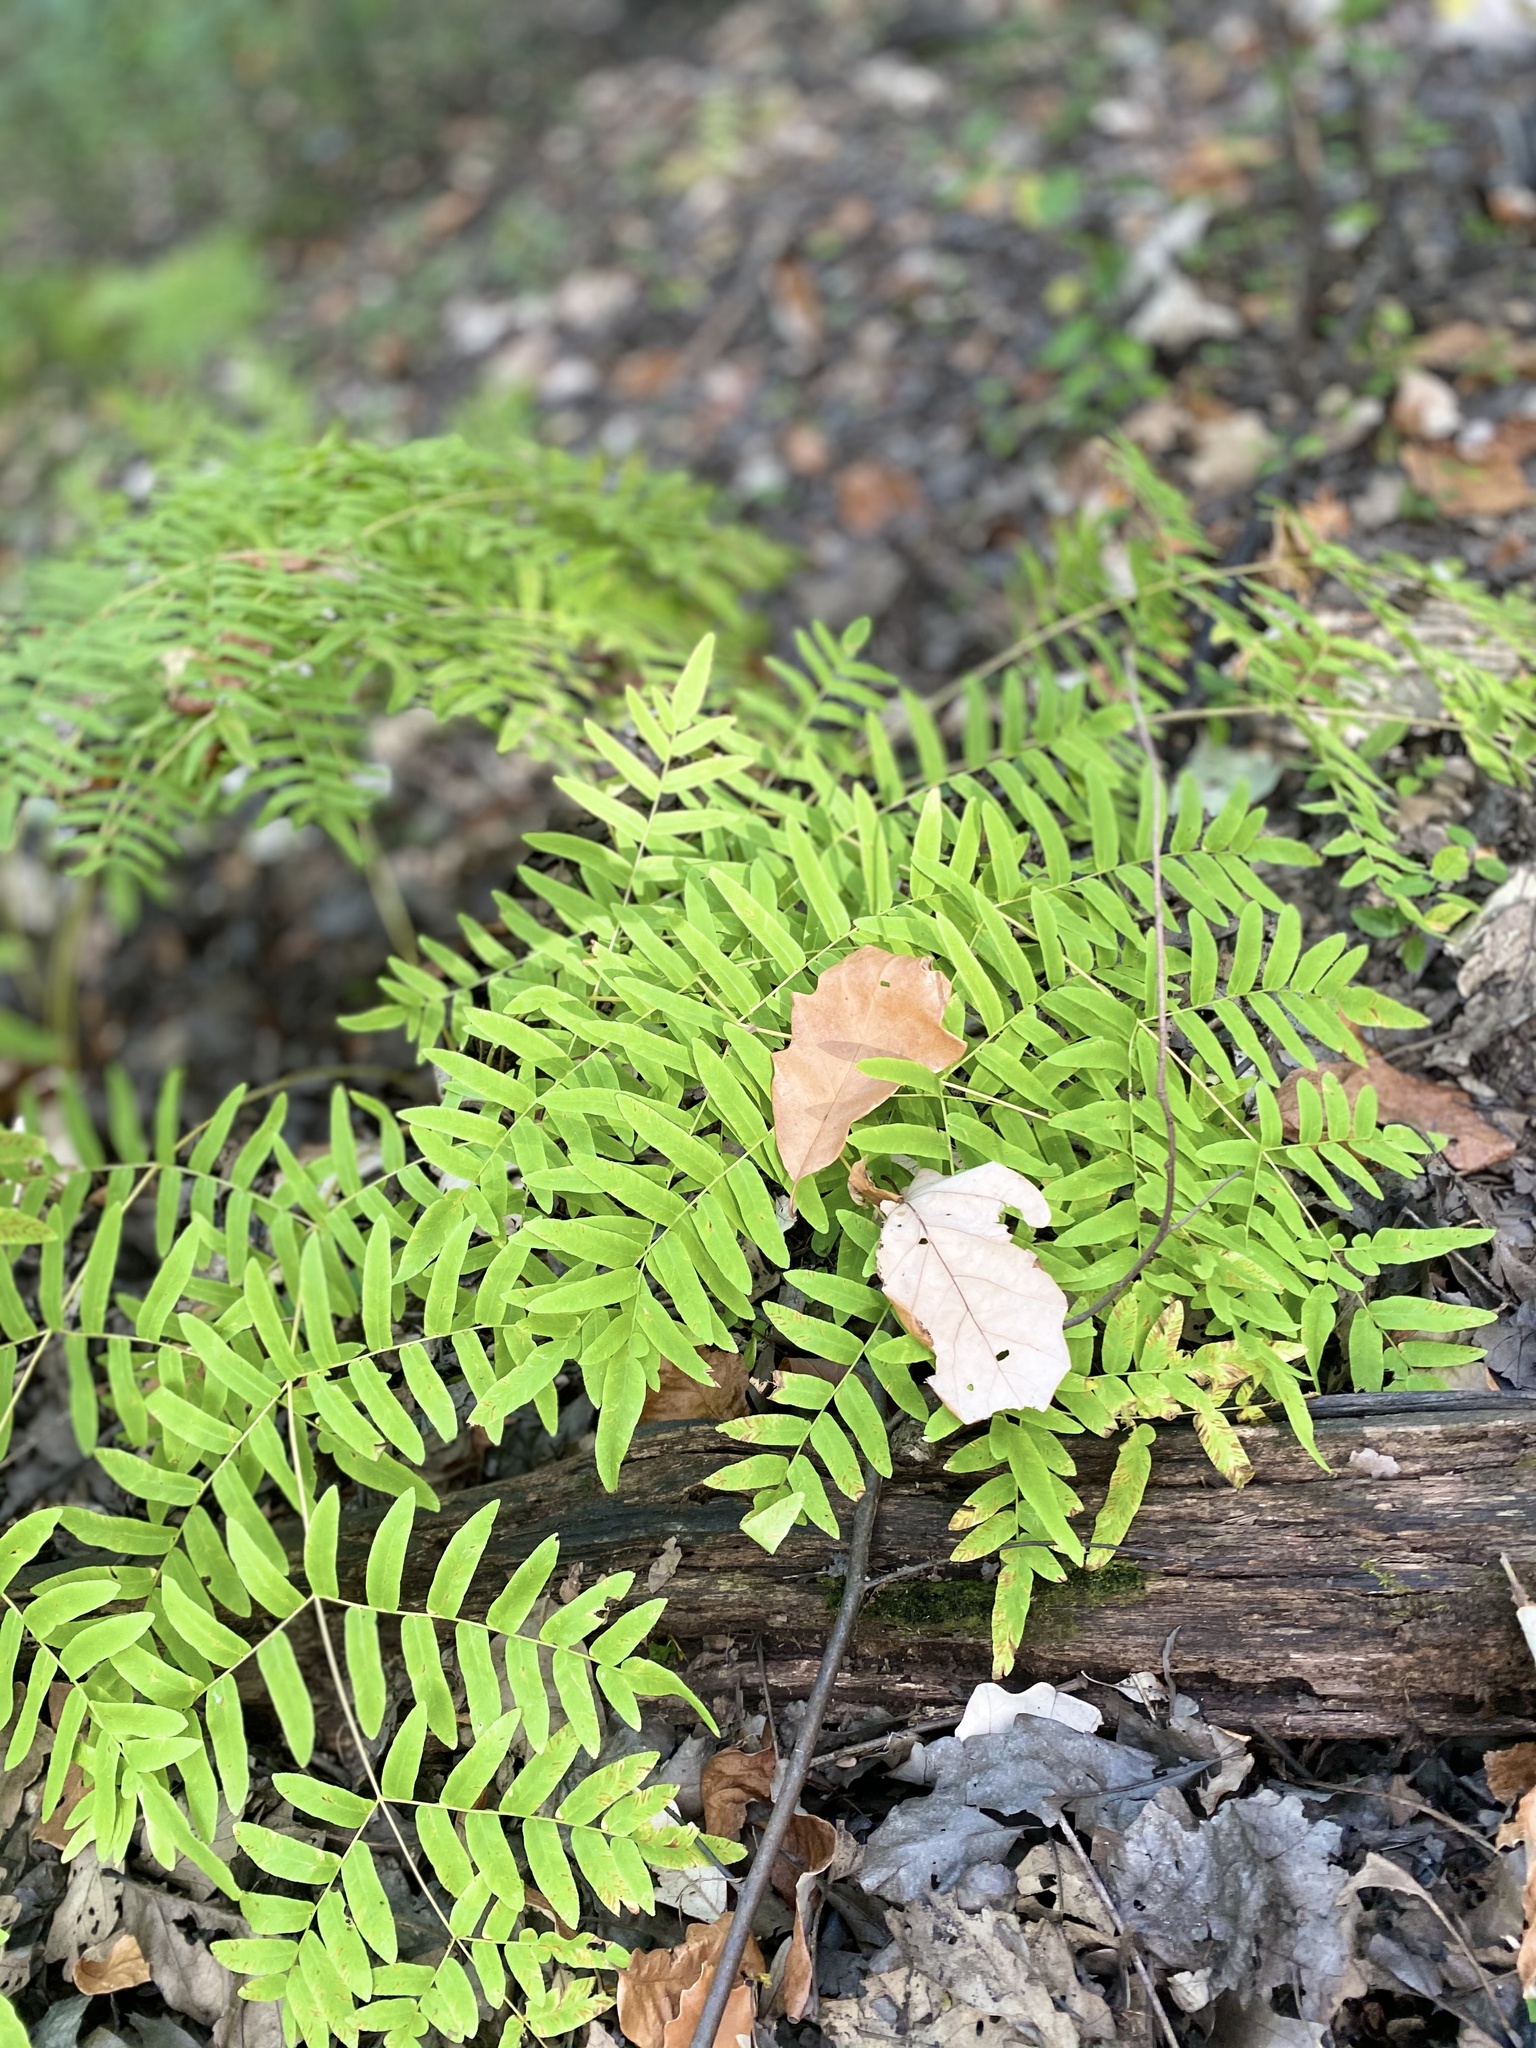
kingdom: Plantae
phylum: Tracheophyta
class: Polypodiopsida
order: Osmundales
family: Osmundaceae
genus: Osmunda
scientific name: Osmunda spectabilis
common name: American royal fern
